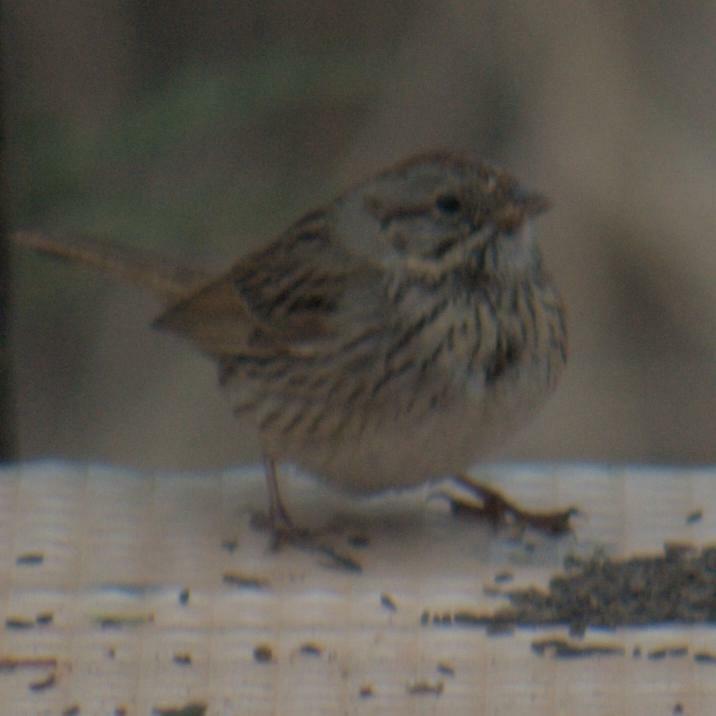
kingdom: Animalia
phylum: Chordata
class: Aves
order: Passeriformes
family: Passerellidae
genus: Melospiza
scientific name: Melospiza lincolnii
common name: Lincoln's sparrow
